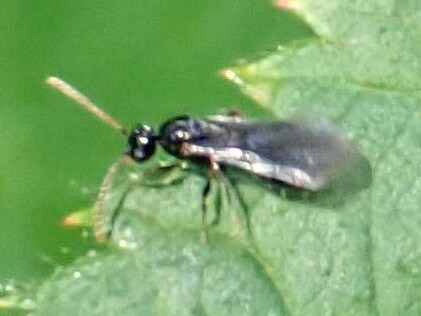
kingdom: Animalia
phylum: Arthropoda
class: Insecta
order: Hymenoptera
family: Formicidae
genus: Myrmecina
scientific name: Myrmecina americana
